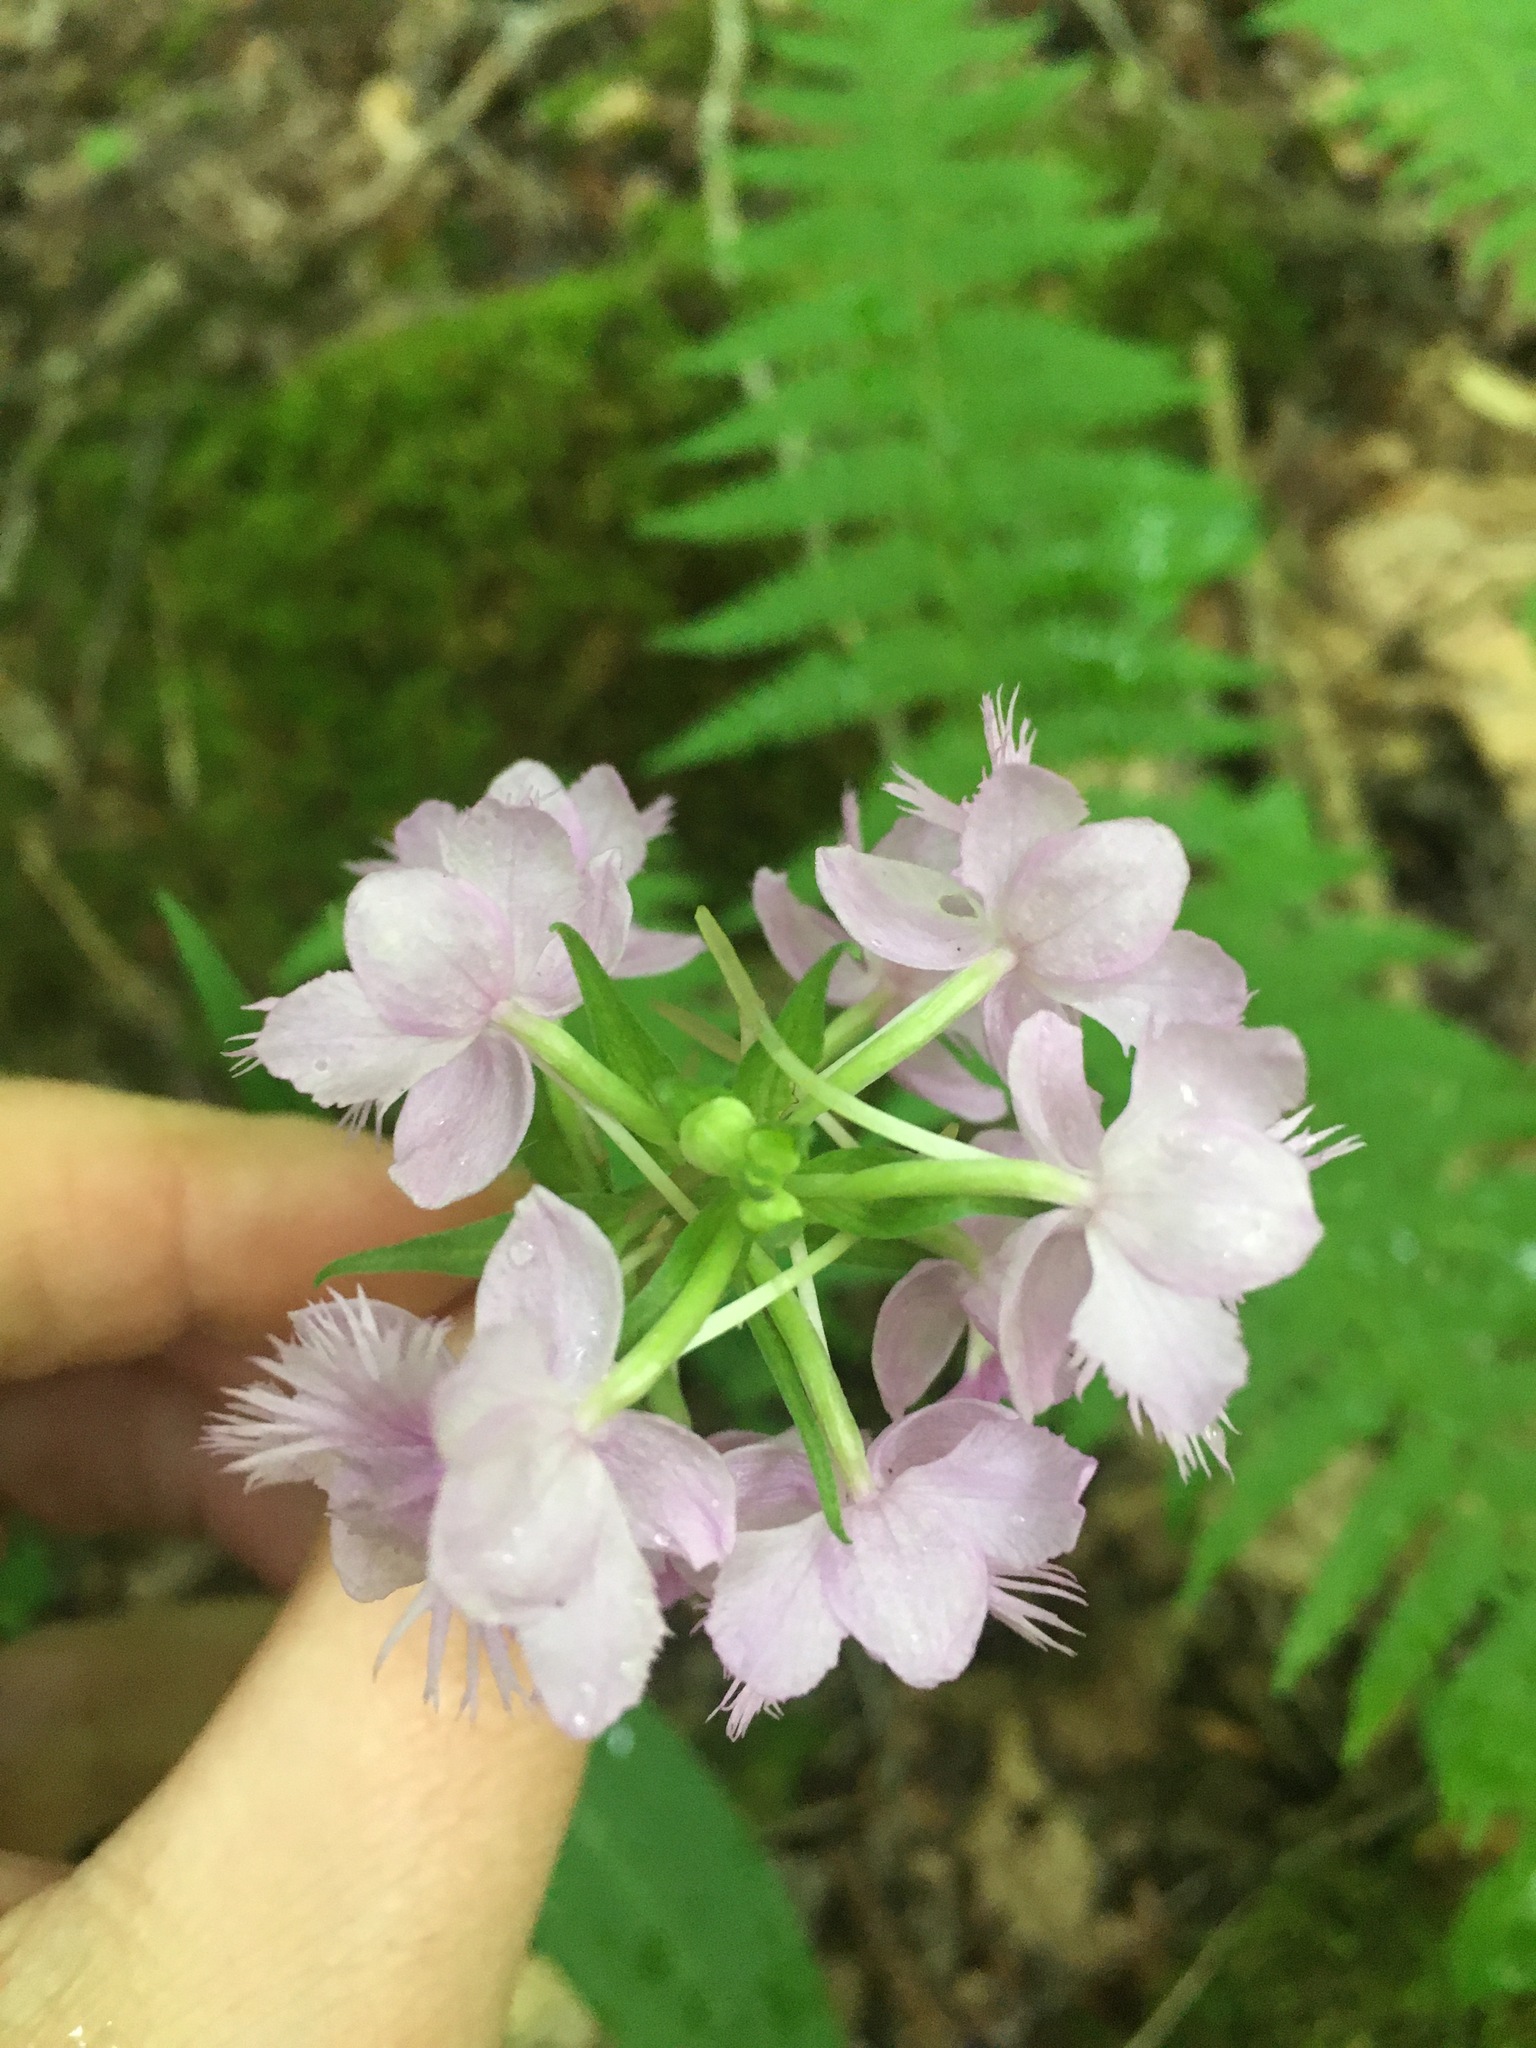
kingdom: Plantae
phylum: Tracheophyta
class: Liliopsida
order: Asparagales
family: Orchidaceae
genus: Platanthera
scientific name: Platanthera grandiflora
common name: Greater purple fringed orchid
